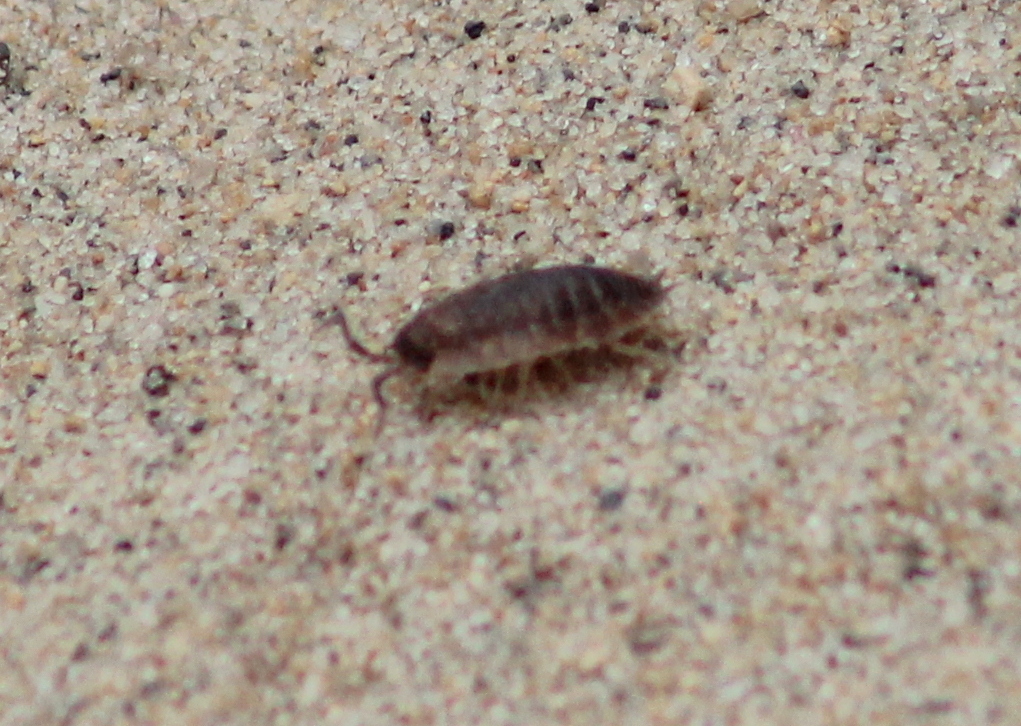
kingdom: Animalia
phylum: Arthropoda
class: Malacostraca
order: Isopoda
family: Porcellionidae
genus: Porcellio
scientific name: Porcellio scaber
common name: Common rough woodlouse
